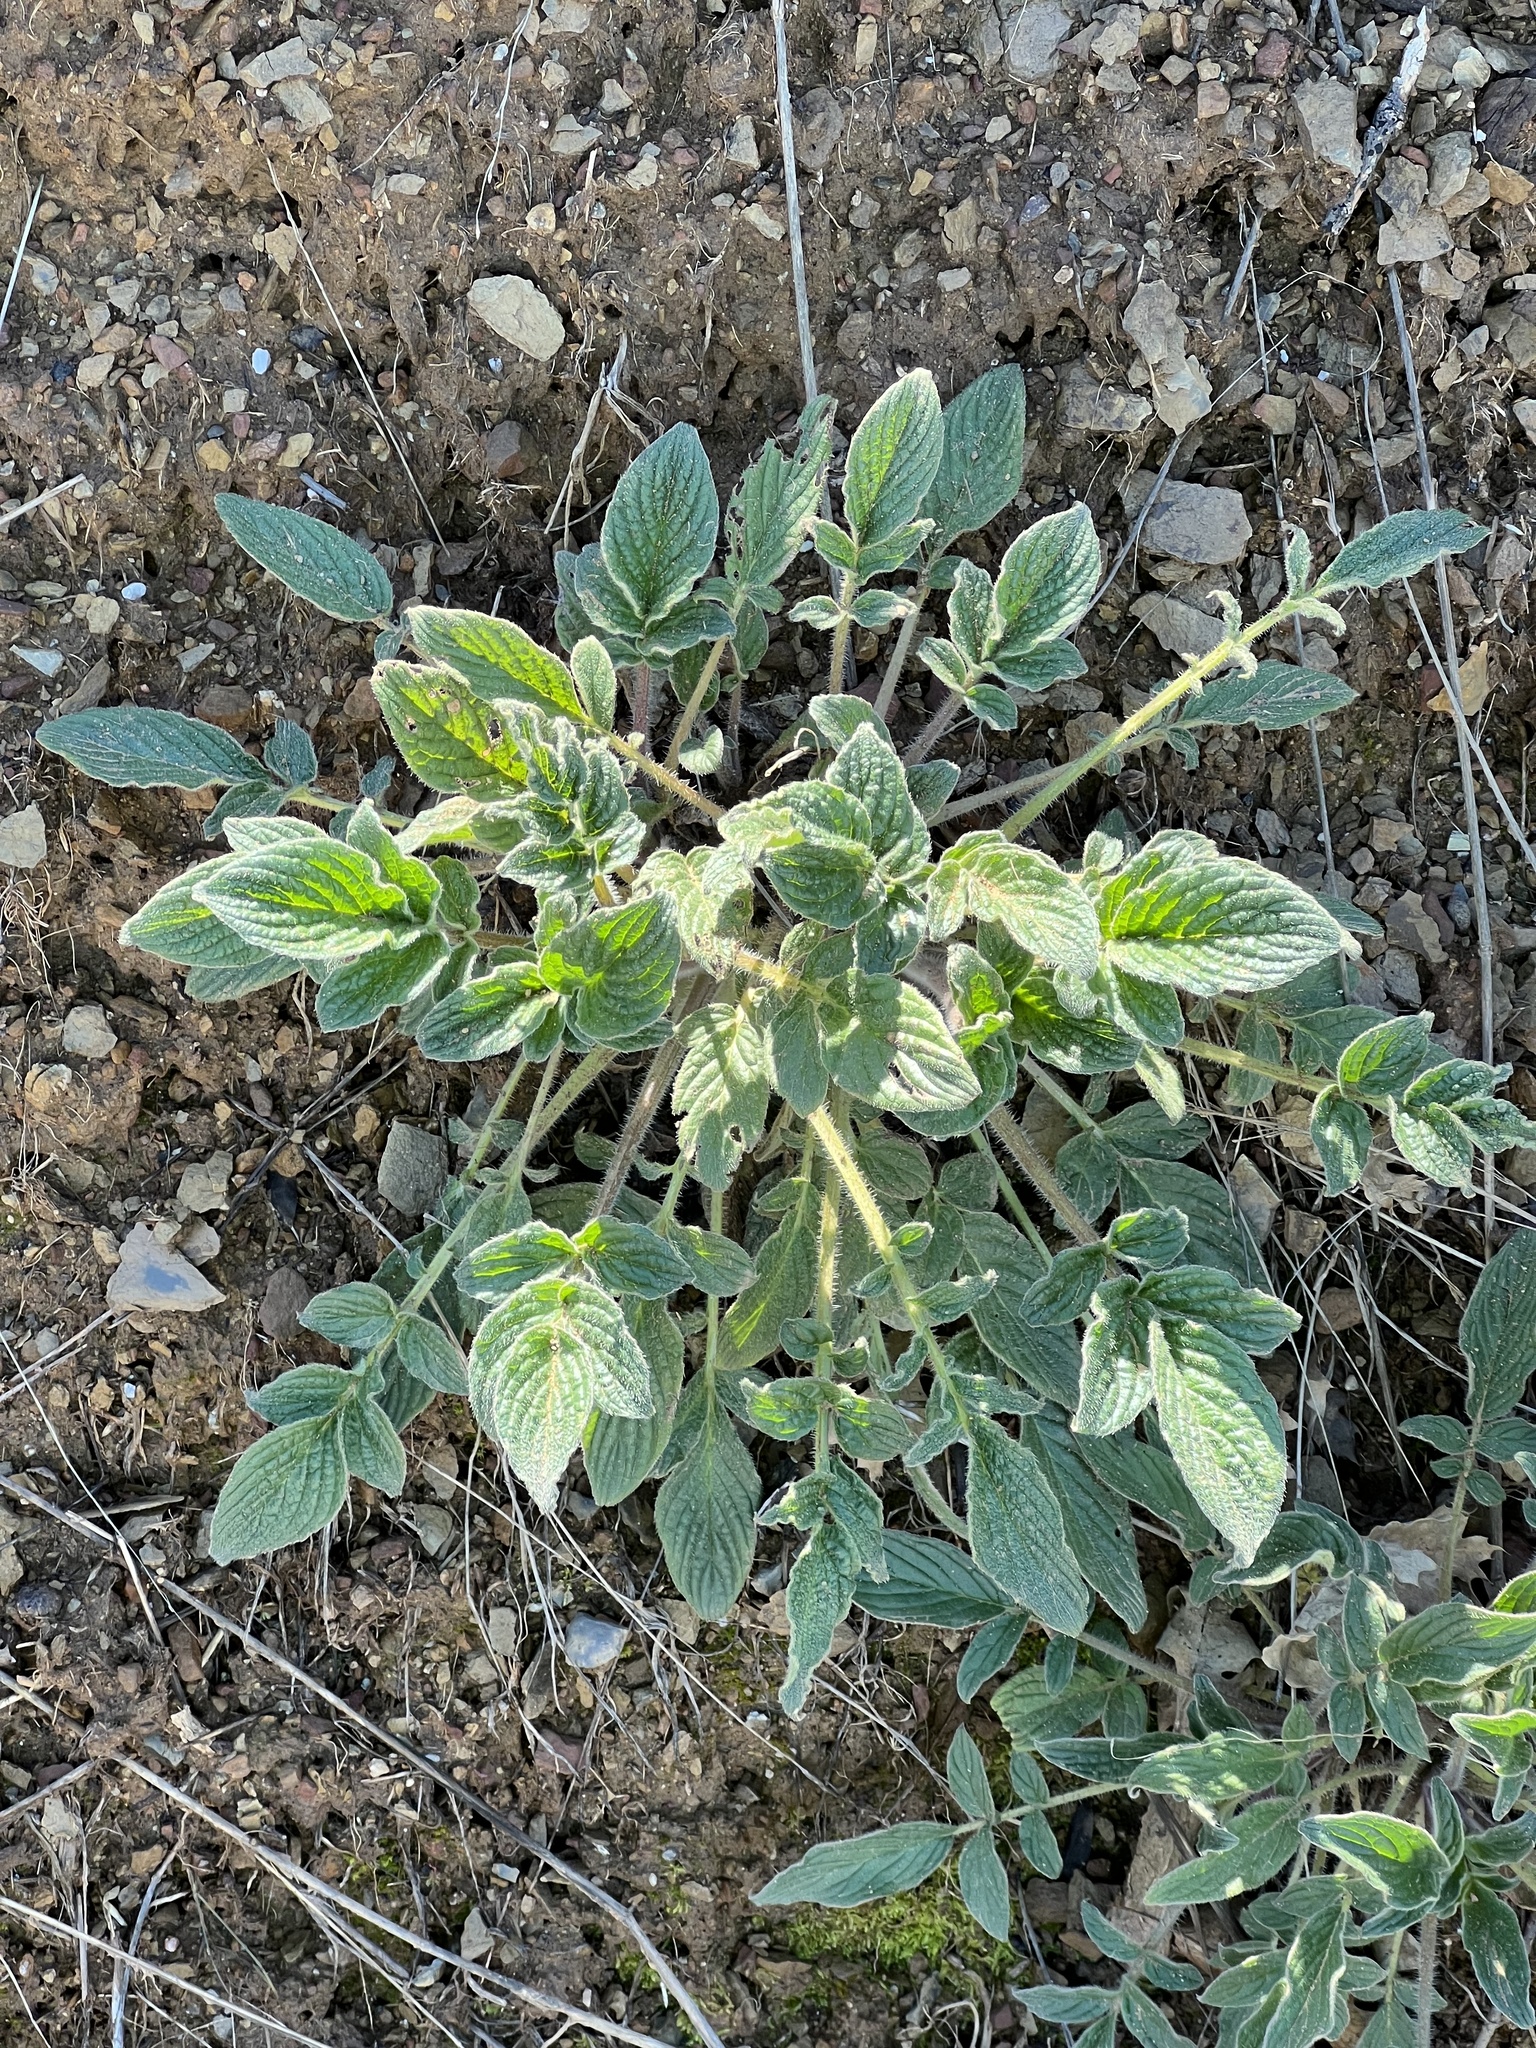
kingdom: Plantae
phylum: Tracheophyta
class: Magnoliopsida
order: Boraginales
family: Hydrophyllaceae
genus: Phacelia
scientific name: Phacelia californica
